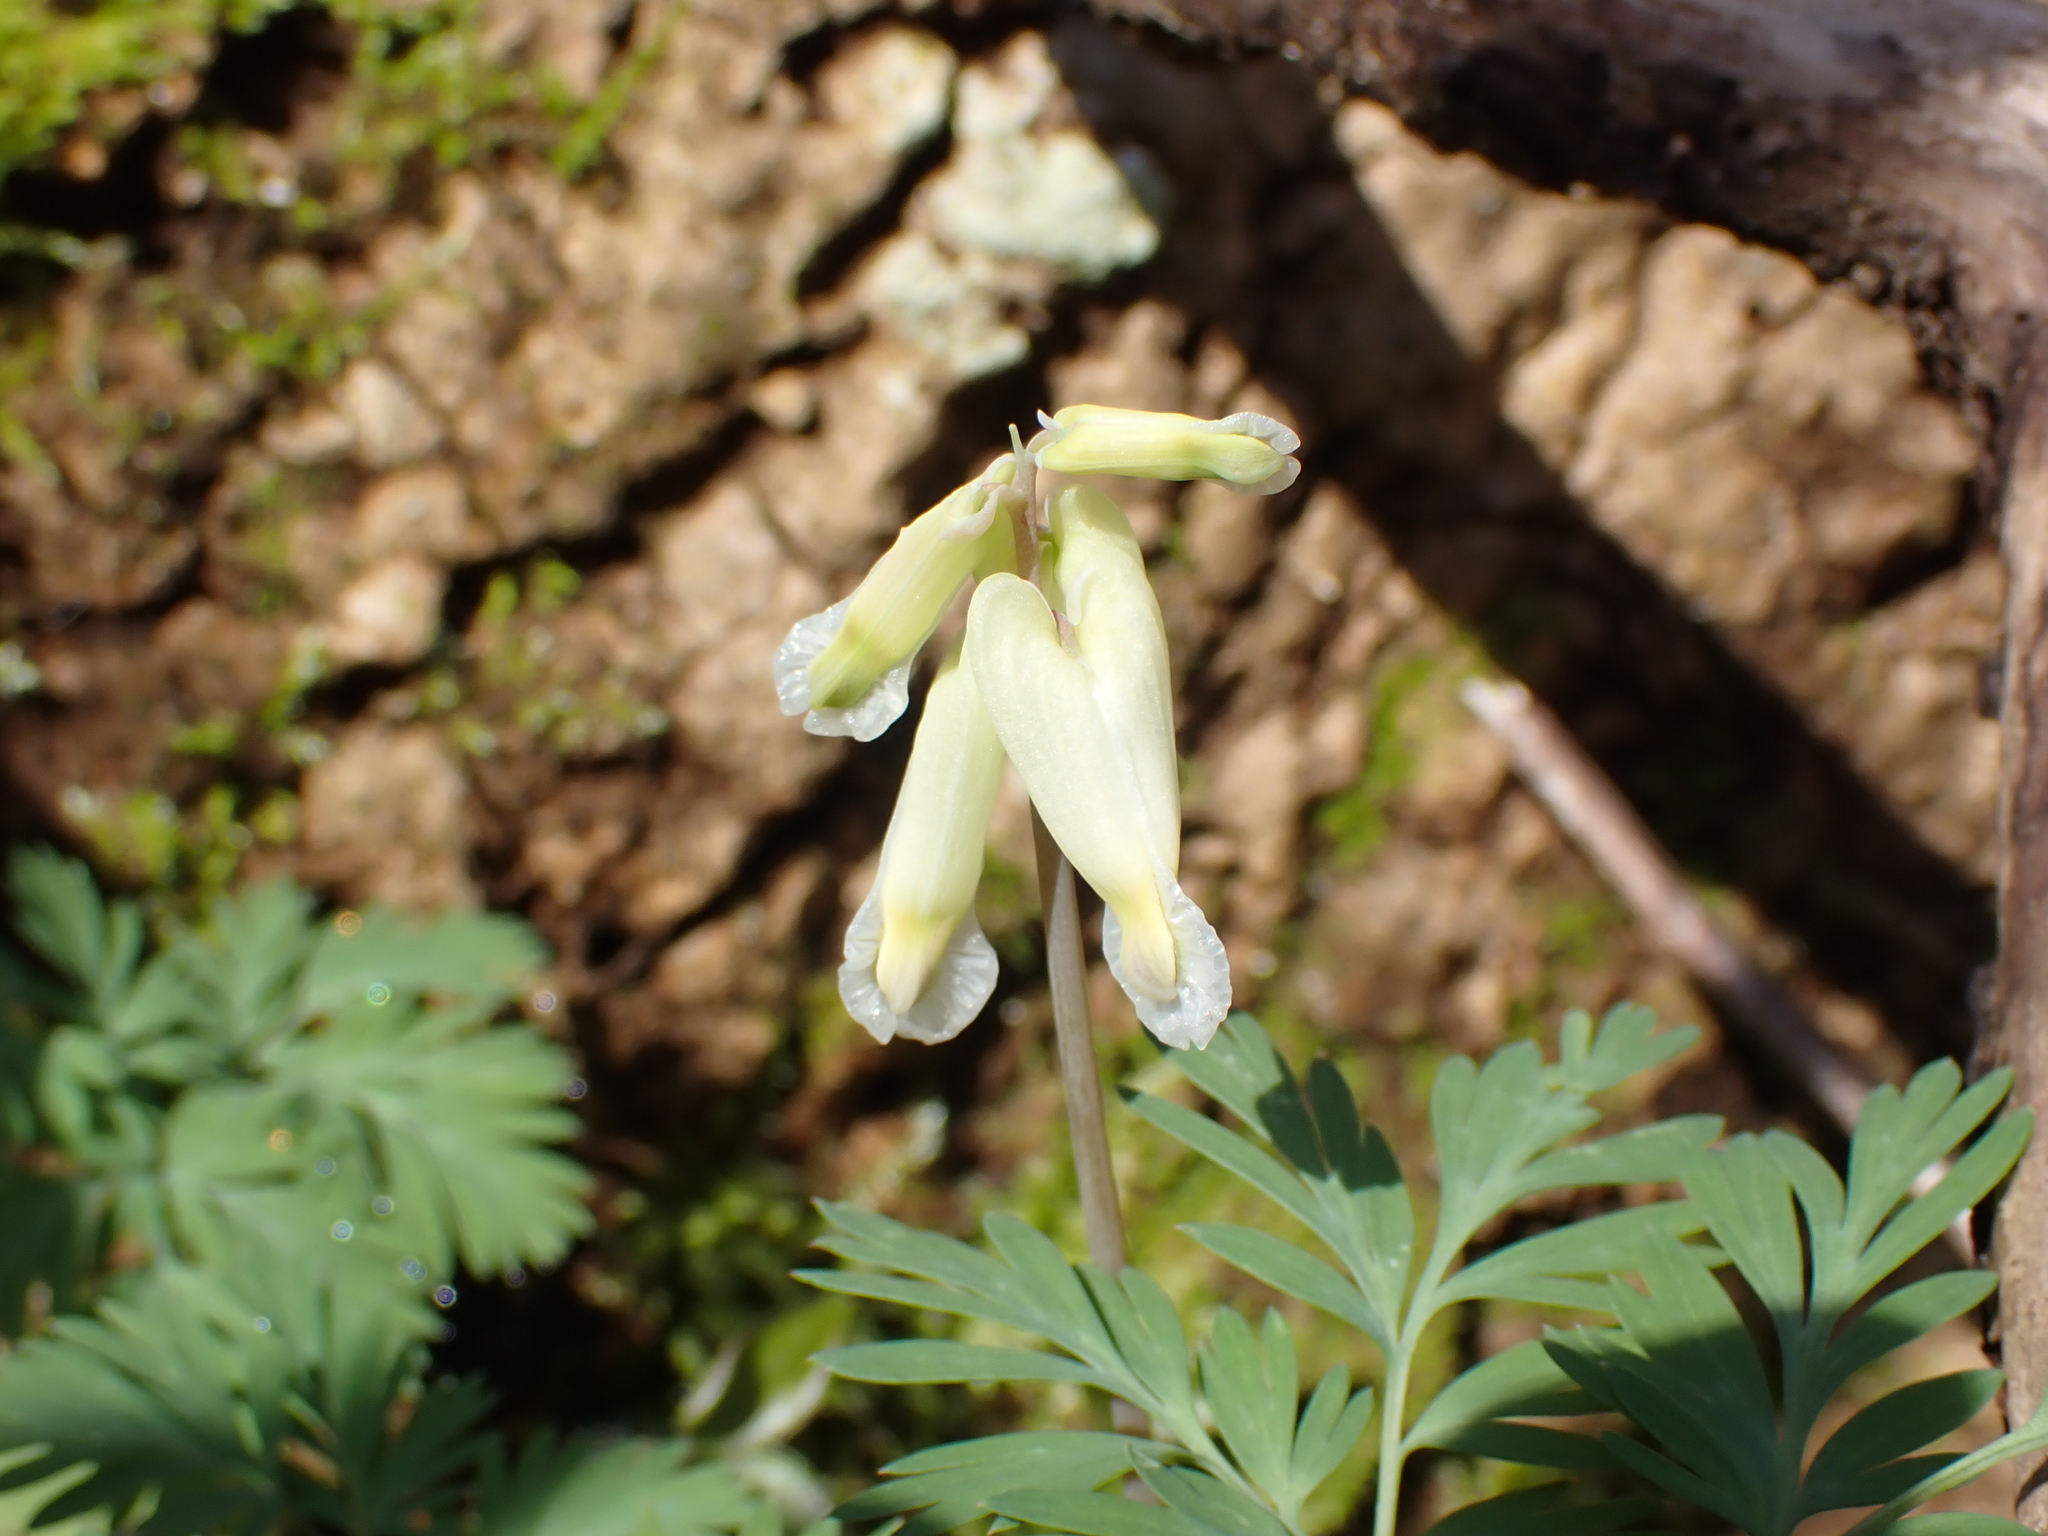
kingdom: Plantae
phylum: Tracheophyta
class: Magnoliopsida
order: Ranunculales
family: Papaveraceae
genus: Dicentra
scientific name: Dicentra canadensis
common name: Squirrel-corn
